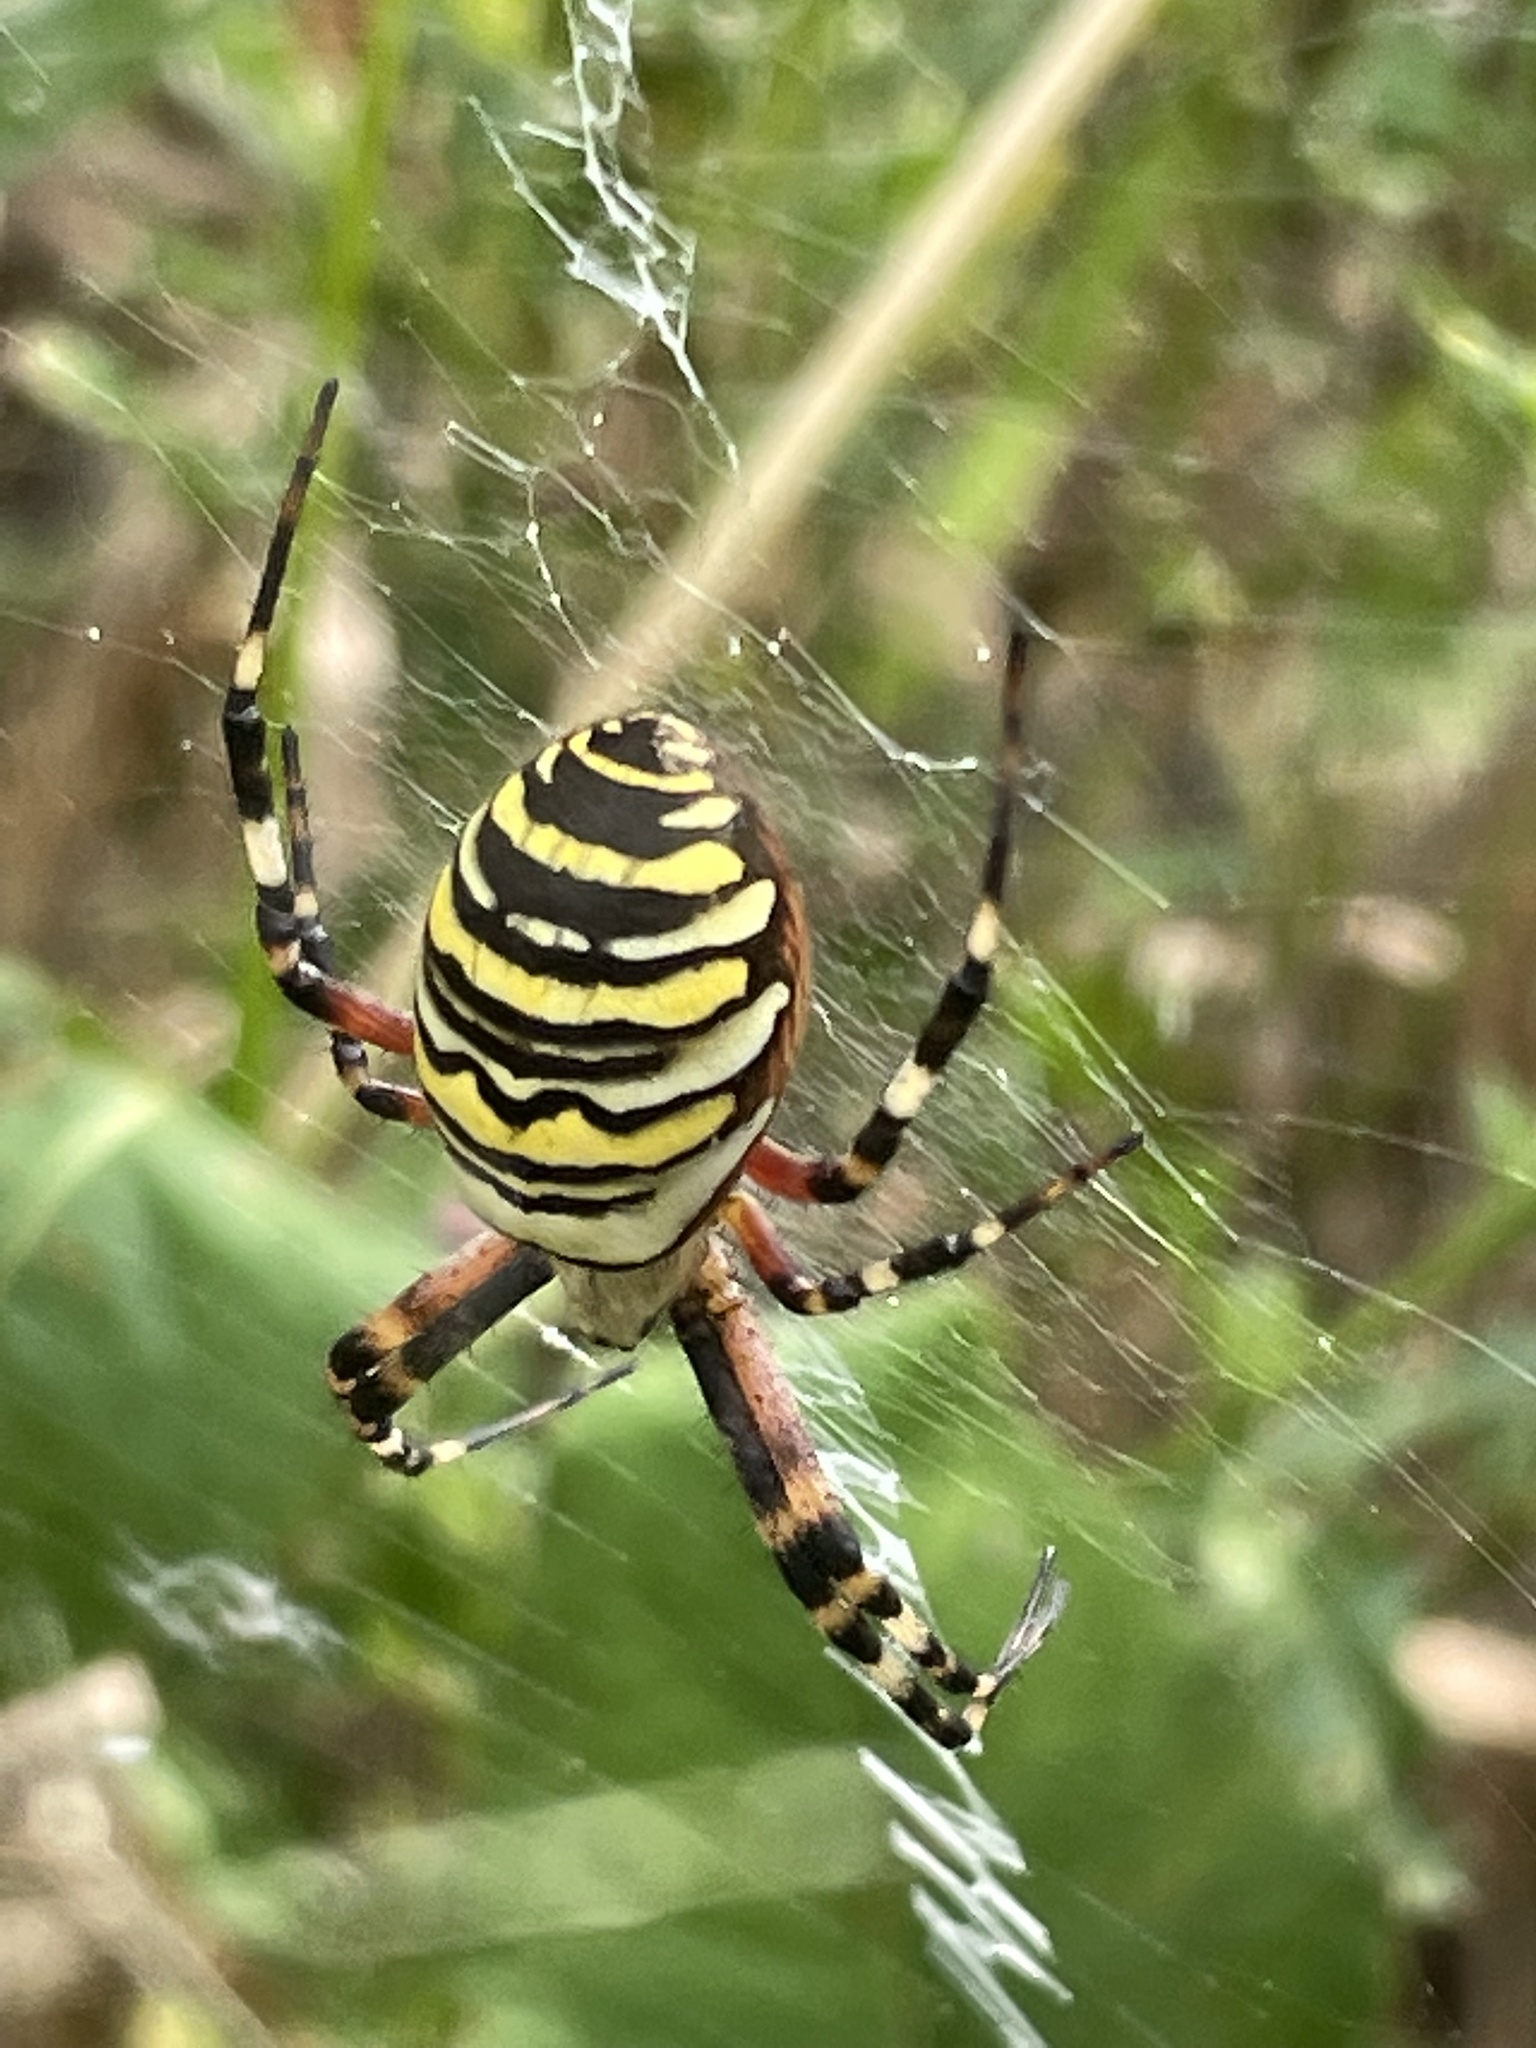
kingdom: Animalia
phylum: Arthropoda
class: Arachnida
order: Araneae
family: Araneidae
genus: Argiope
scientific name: Argiope bruennichi
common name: Wasp spider
